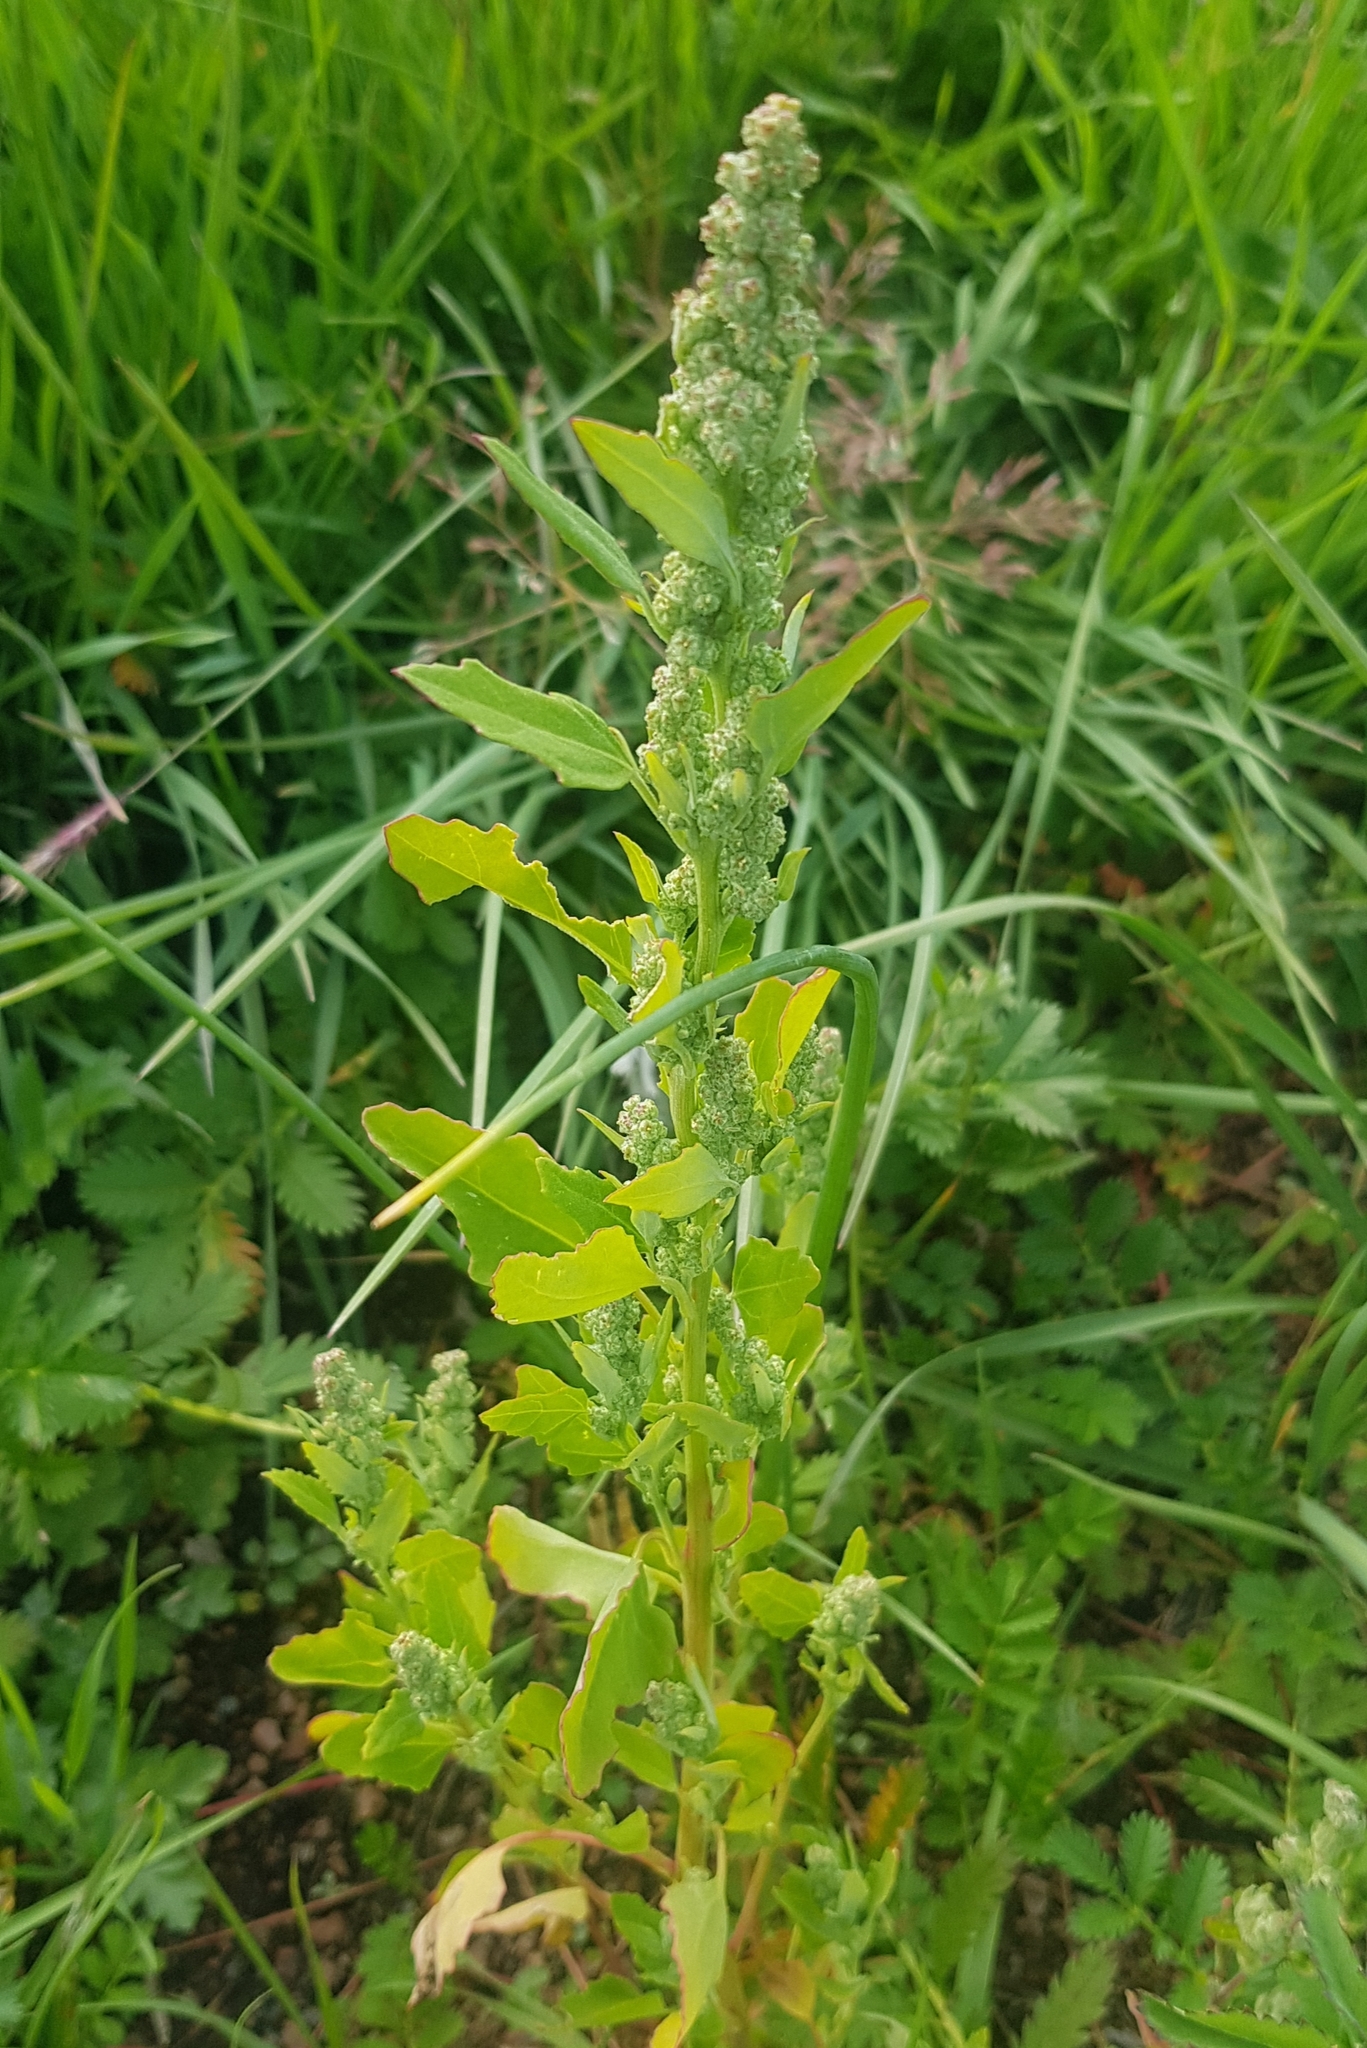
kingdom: Plantae
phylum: Tracheophyta
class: Magnoliopsida
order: Caryophyllales
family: Amaranthaceae
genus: Chenopodium
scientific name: Chenopodium album
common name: Fat-hen
